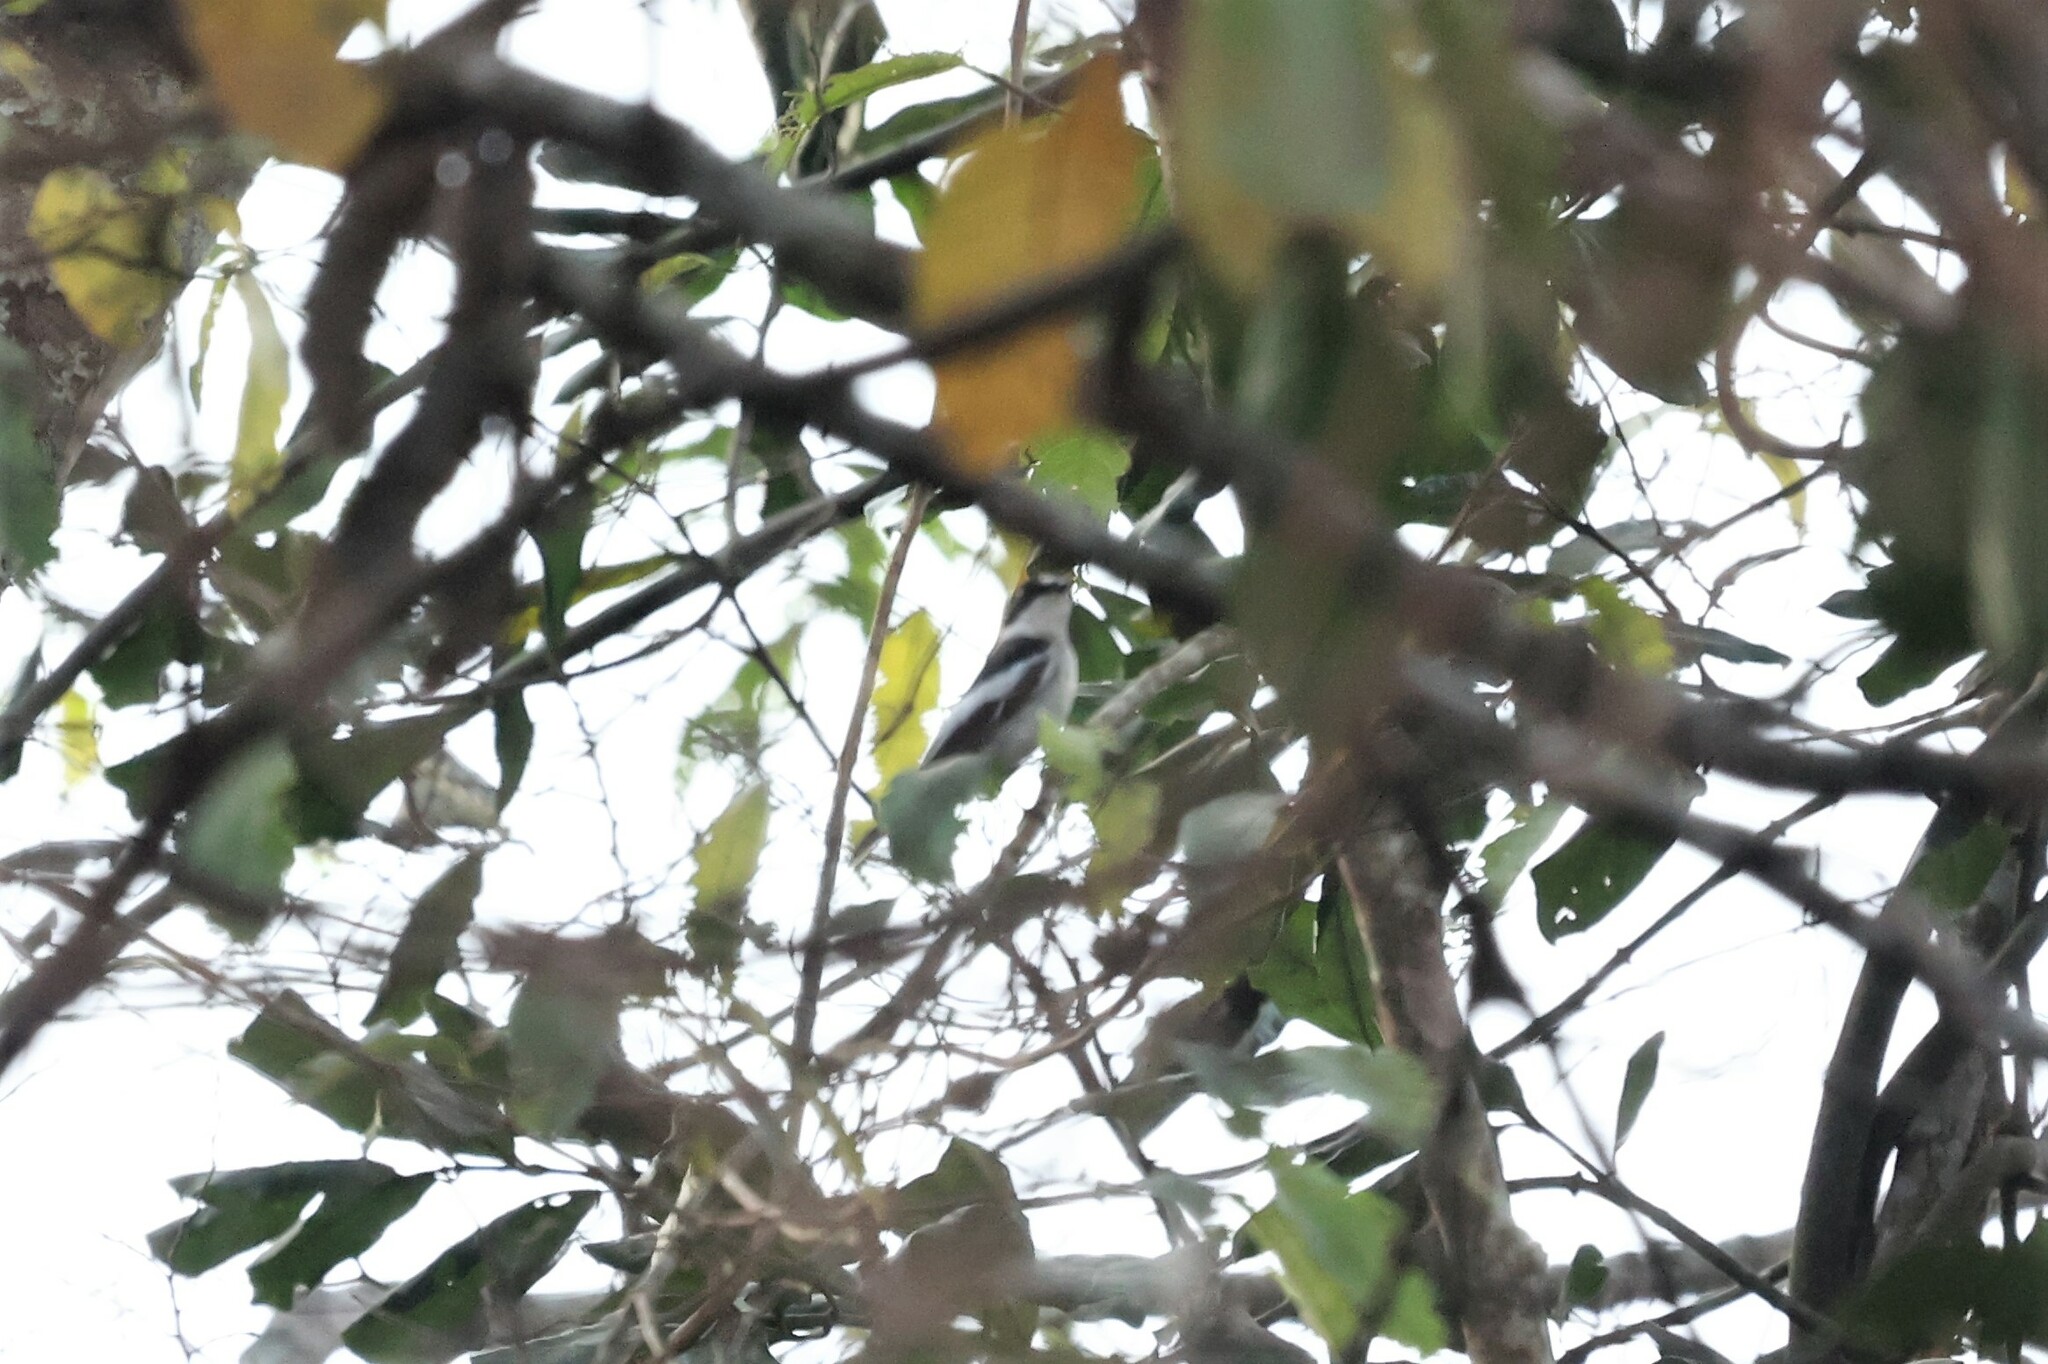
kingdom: Animalia
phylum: Chordata
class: Aves
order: Passeriformes
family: Muscicapidae
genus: Ficedula
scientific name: Ficedula semitorquata
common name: Semicollared flycatcher
